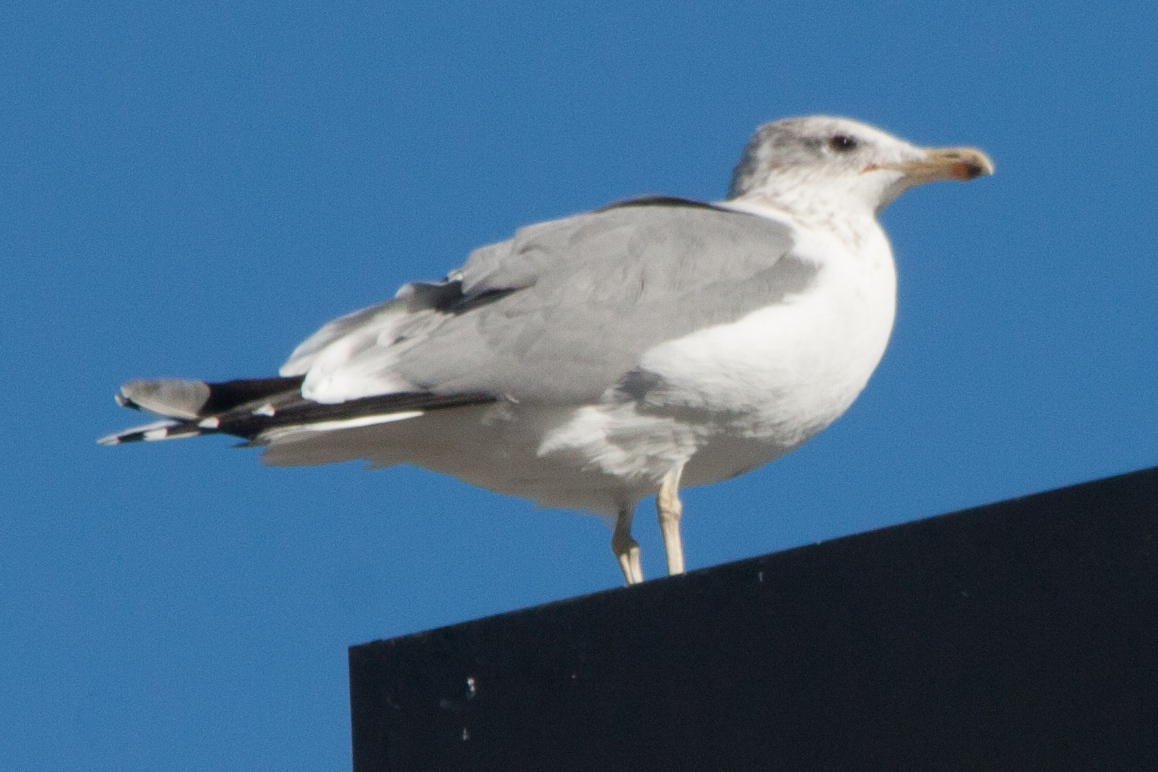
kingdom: Animalia
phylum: Chordata
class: Aves
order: Charadriiformes
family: Laridae
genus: Larus
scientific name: Larus californicus
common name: California gull
